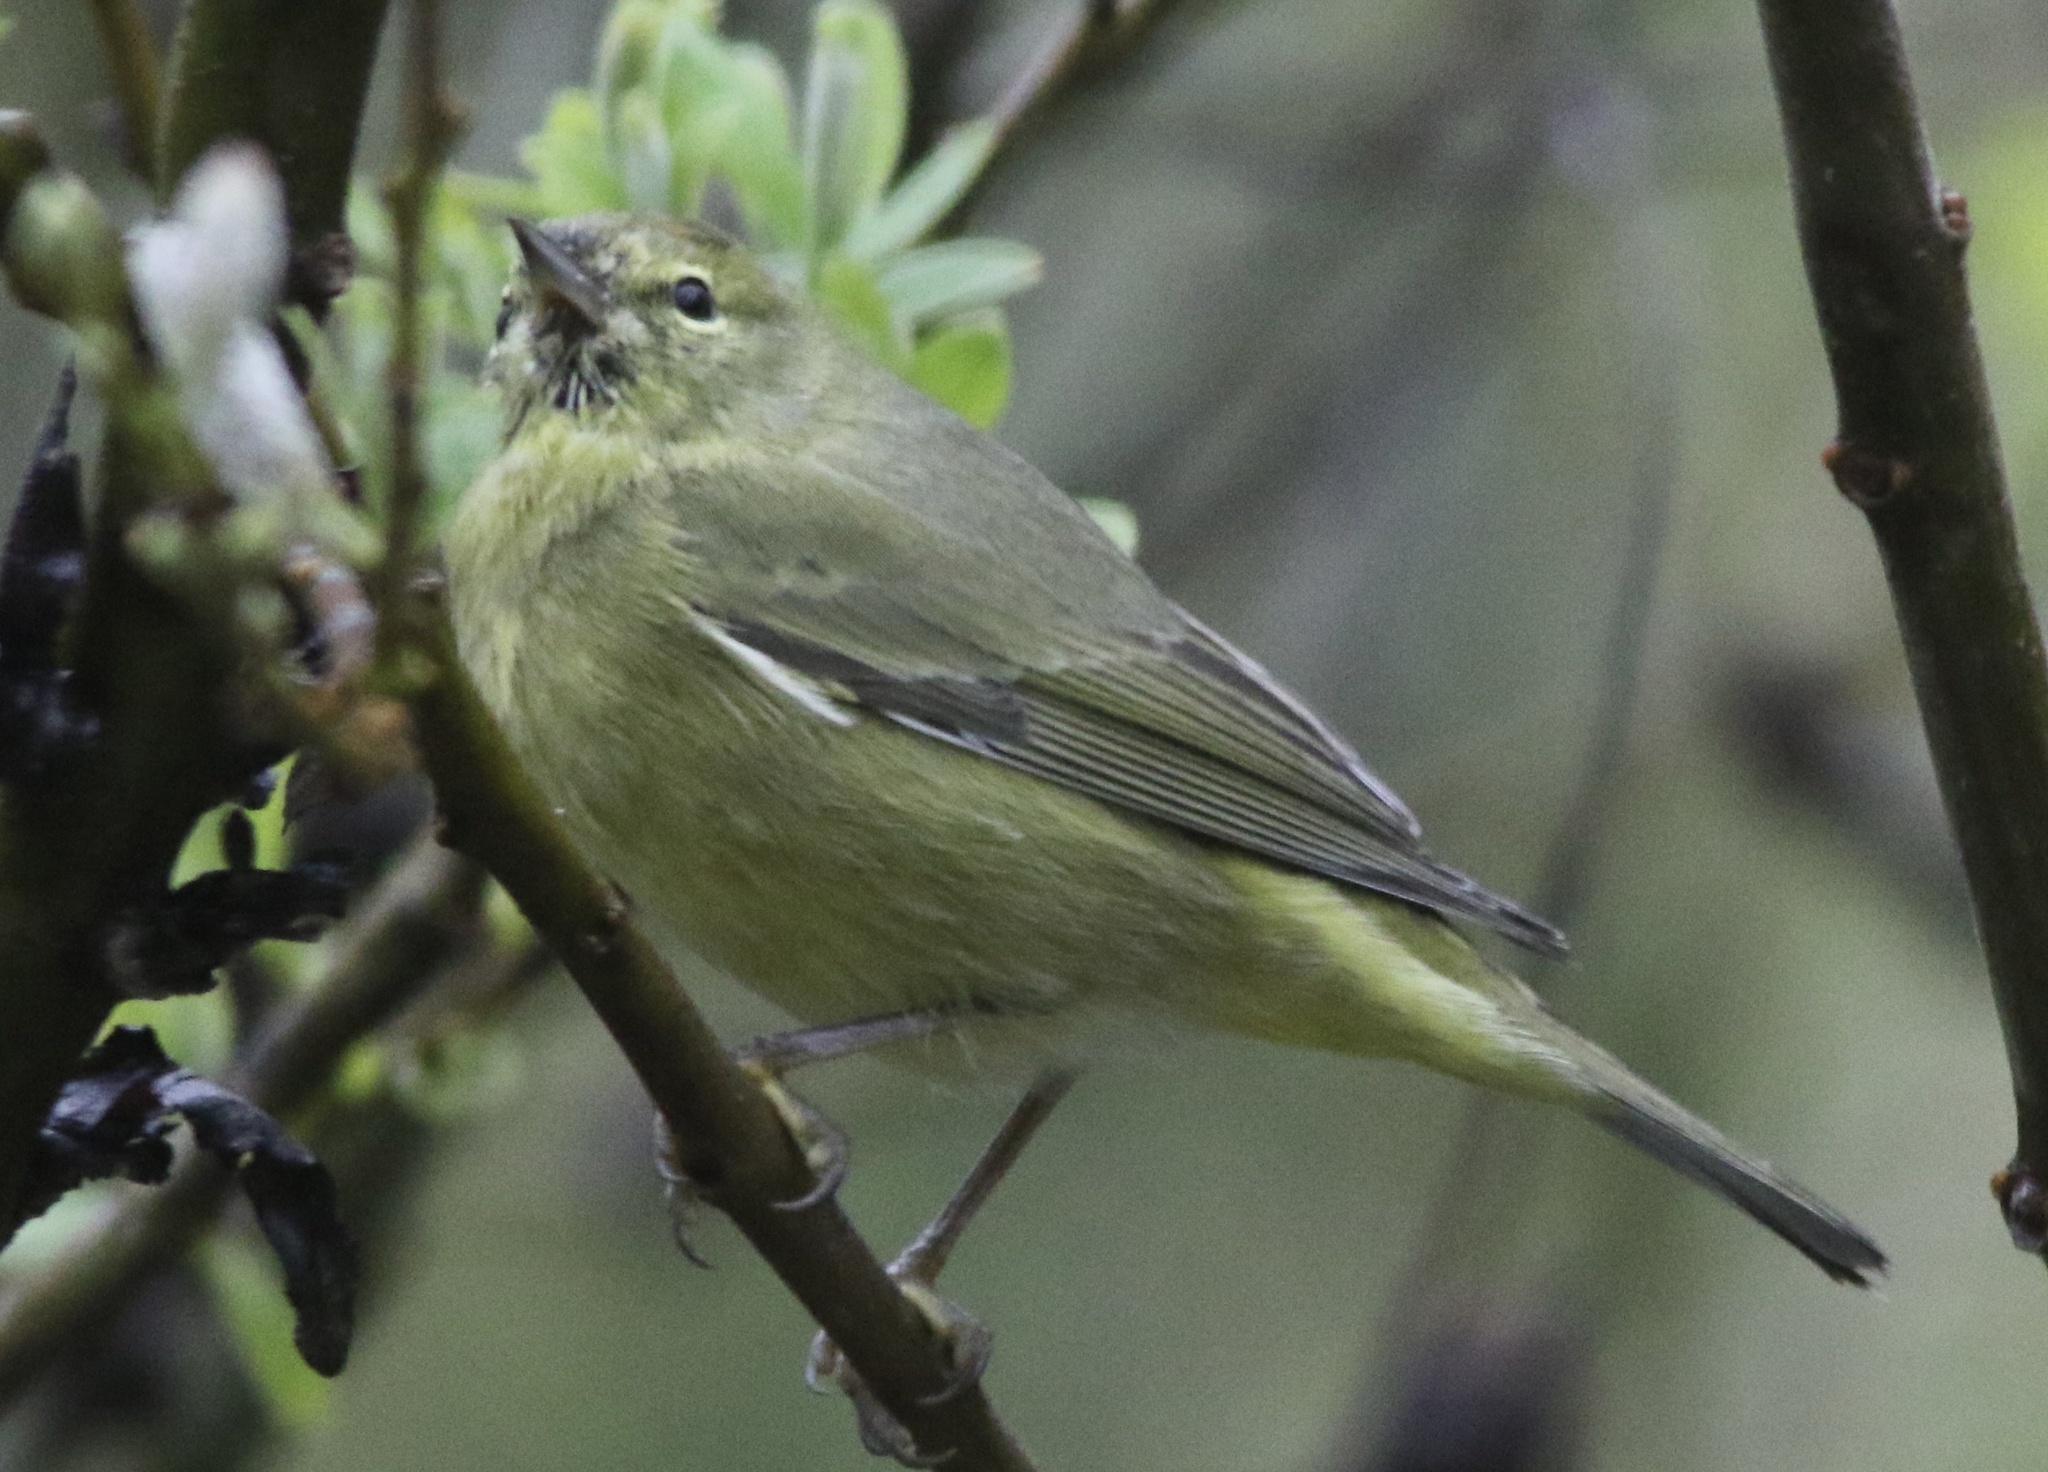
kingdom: Animalia
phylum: Chordata
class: Aves
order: Passeriformes
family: Parulidae
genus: Leiothlypis
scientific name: Leiothlypis celata
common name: Orange-crowned warbler
